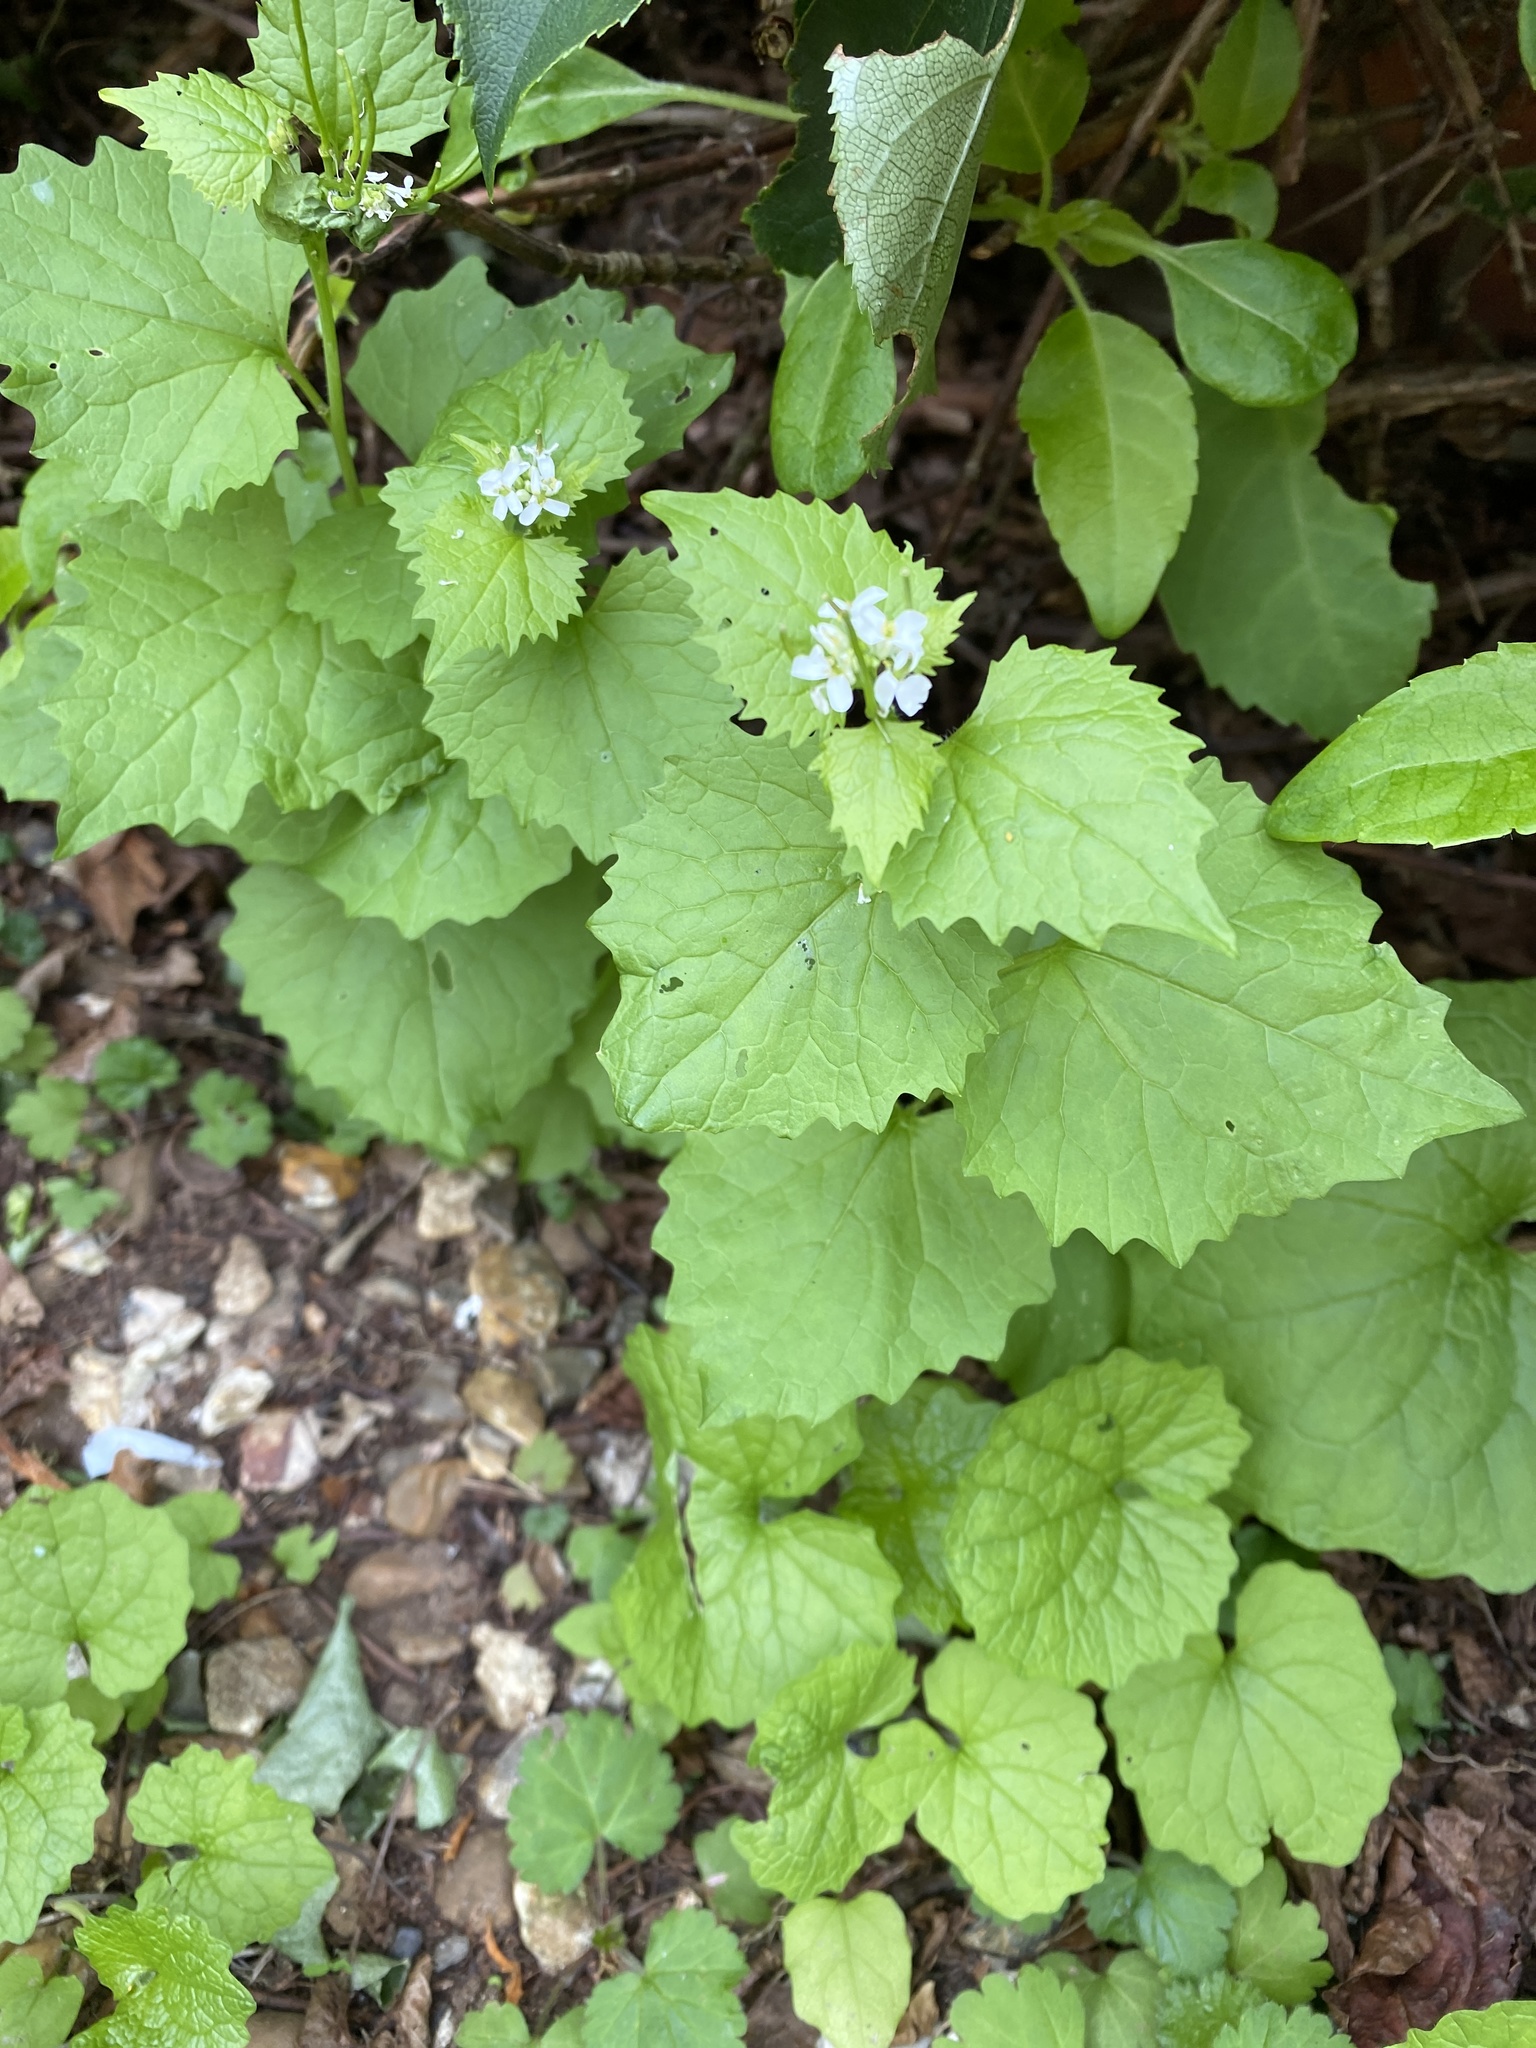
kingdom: Plantae
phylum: Tracheophyta
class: Magnoliopsida
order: Brassicales
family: Brassicaceae
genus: Alliaria
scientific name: Alliaria petiolata
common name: Garlic mustard
